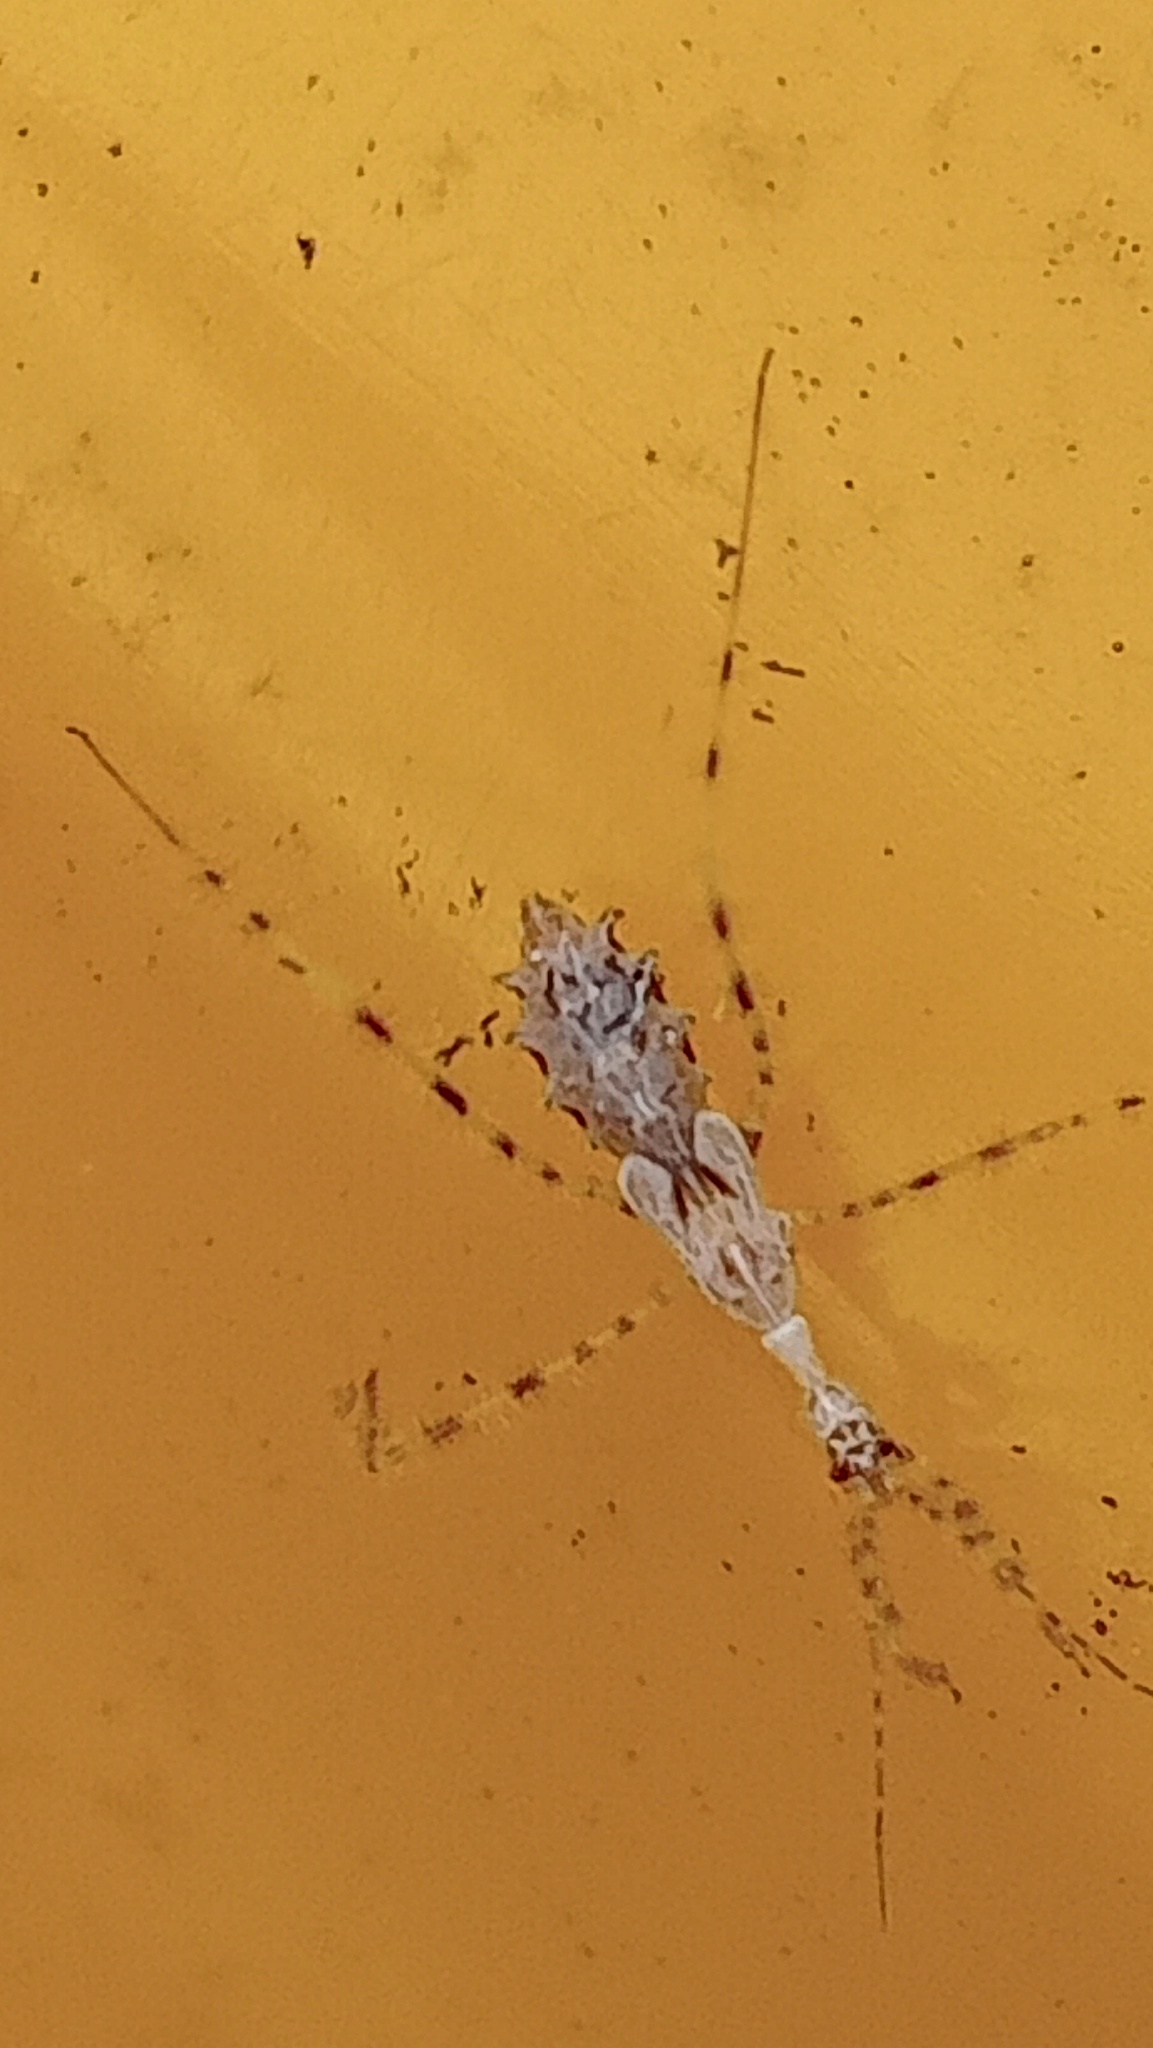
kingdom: Animalia
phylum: Arthropoda
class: Insecta
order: Hemiptera
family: Reduviidae
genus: Stenolemus
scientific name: Stenolemus fraterculus
